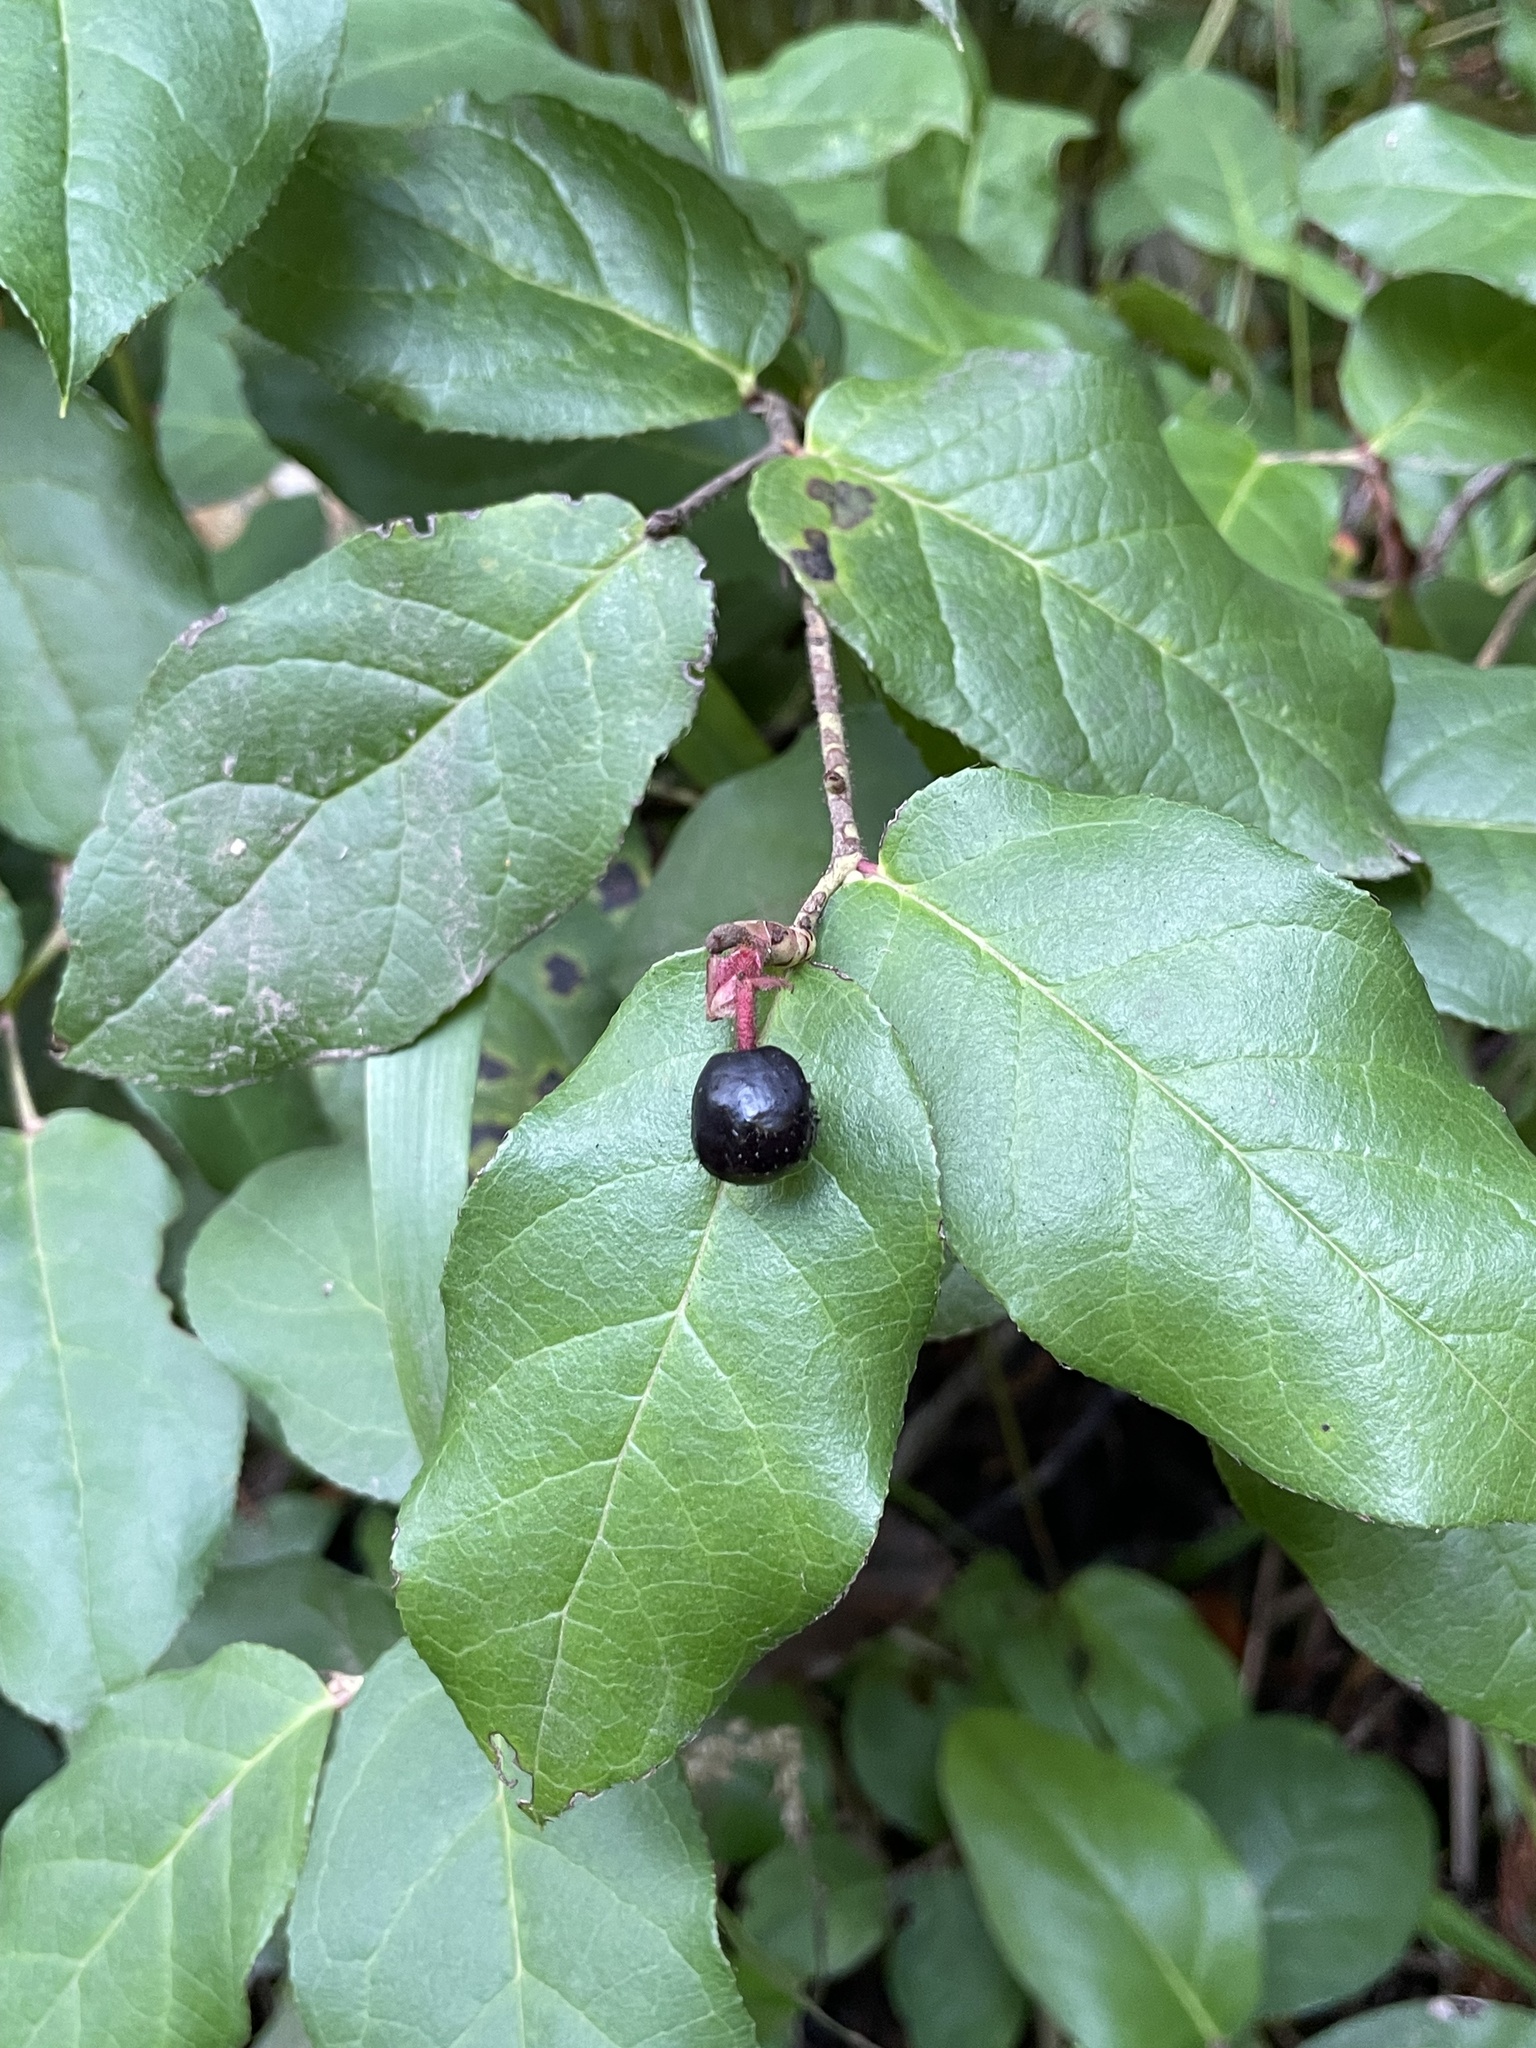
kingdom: Plantae
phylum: Tracheophyta
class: Magnoliopsida
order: Ericales
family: Ericaceae
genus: Gaultheria
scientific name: Gaultheria shallon
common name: Shallon
